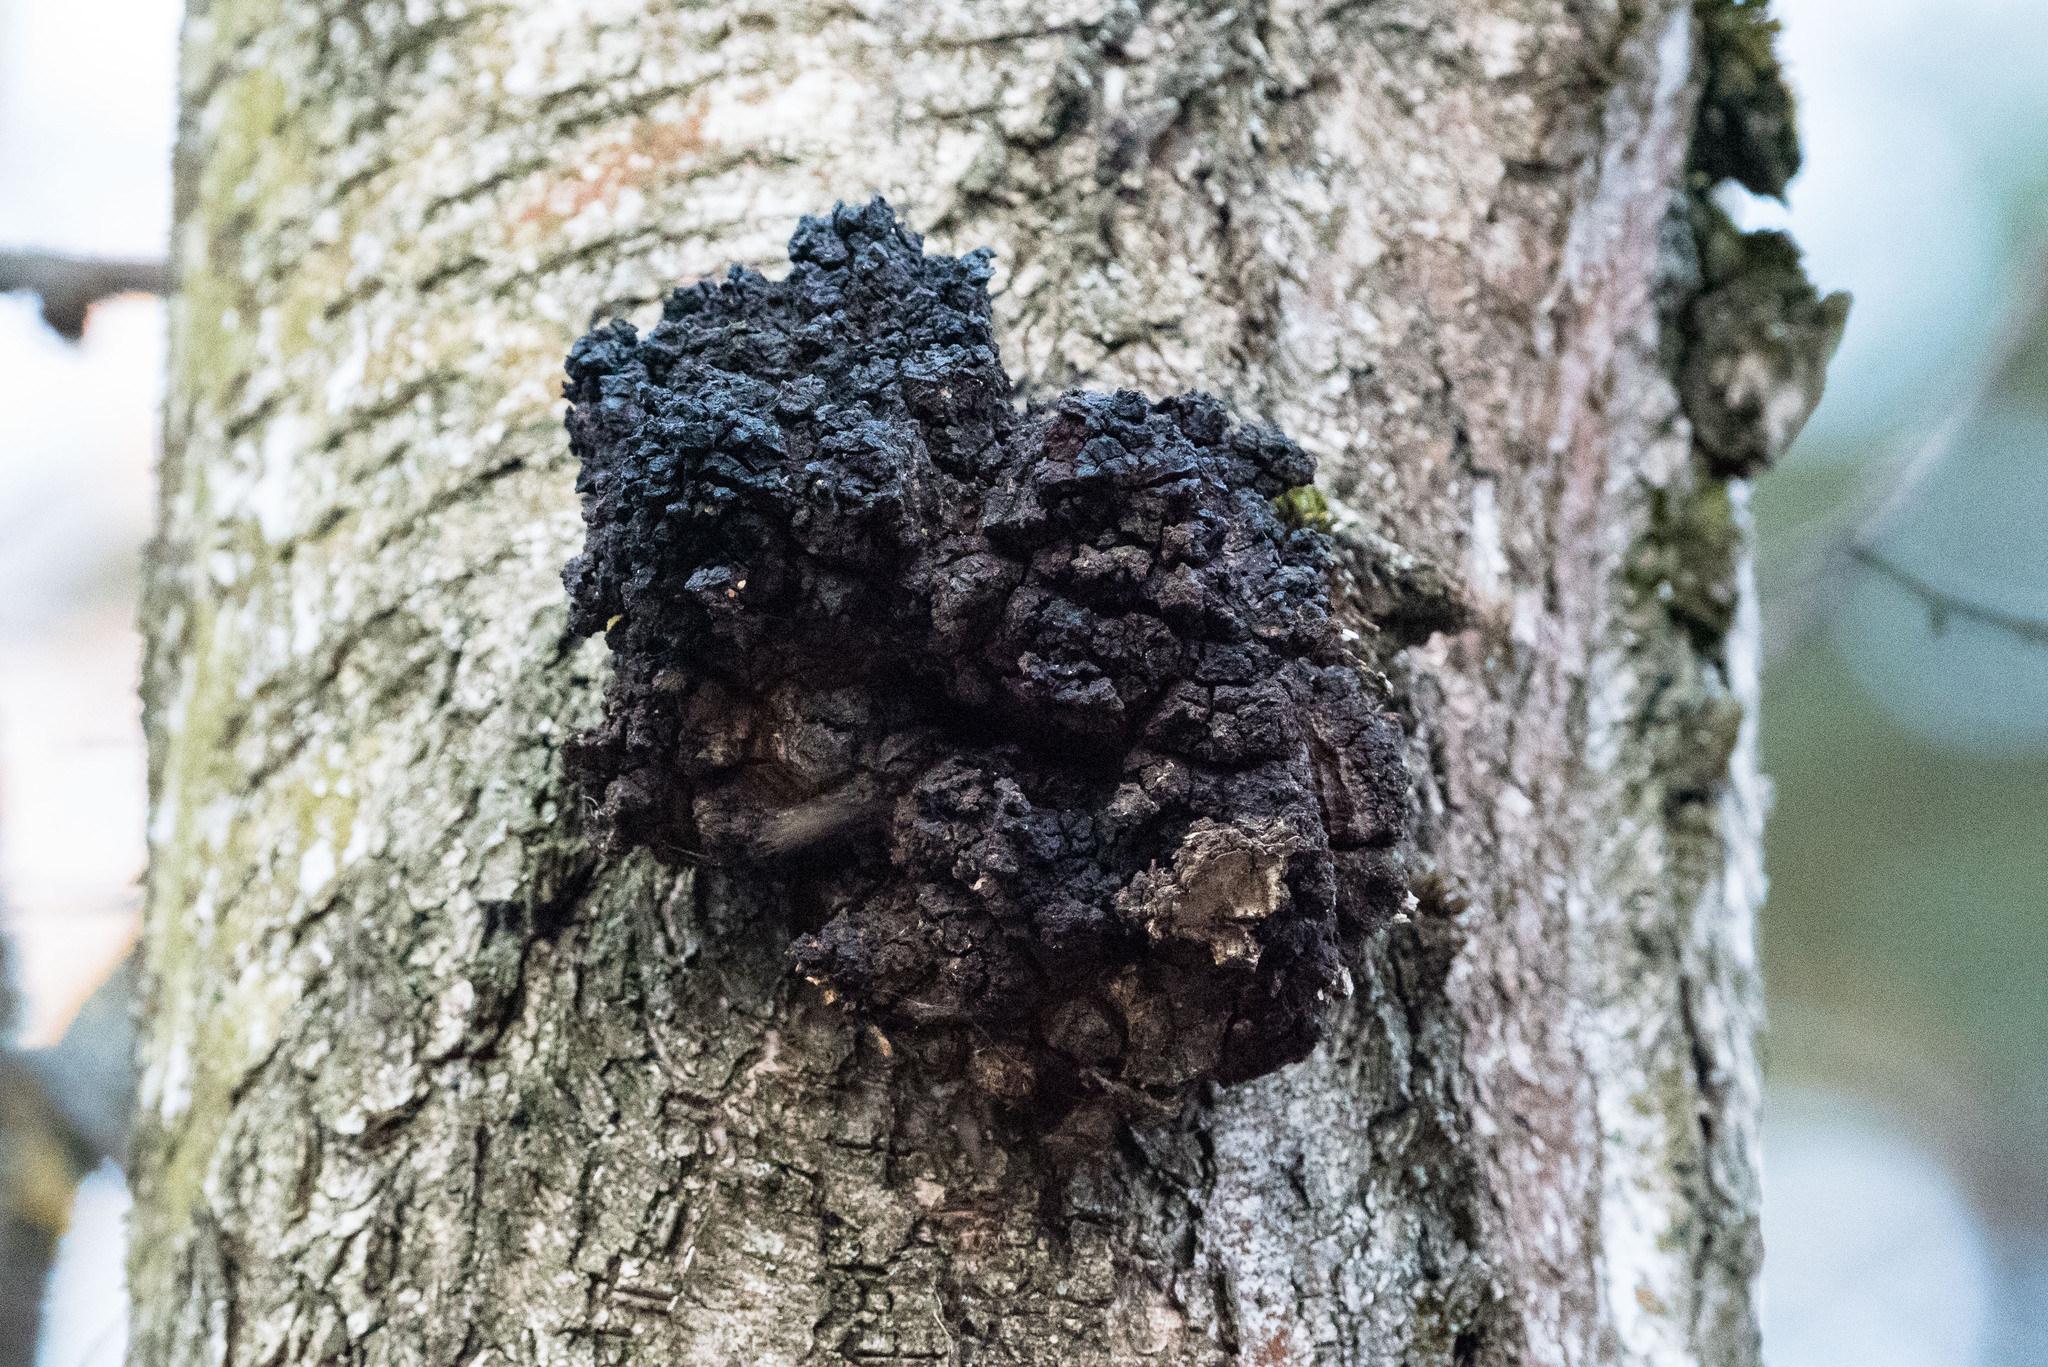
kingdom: Fungi
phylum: Basidiomycota
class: Agaricomycetes
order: Hymenochaetales
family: Hymenochaetaceae
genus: Inonotus
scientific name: Inonotus obliquus
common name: Chaga
